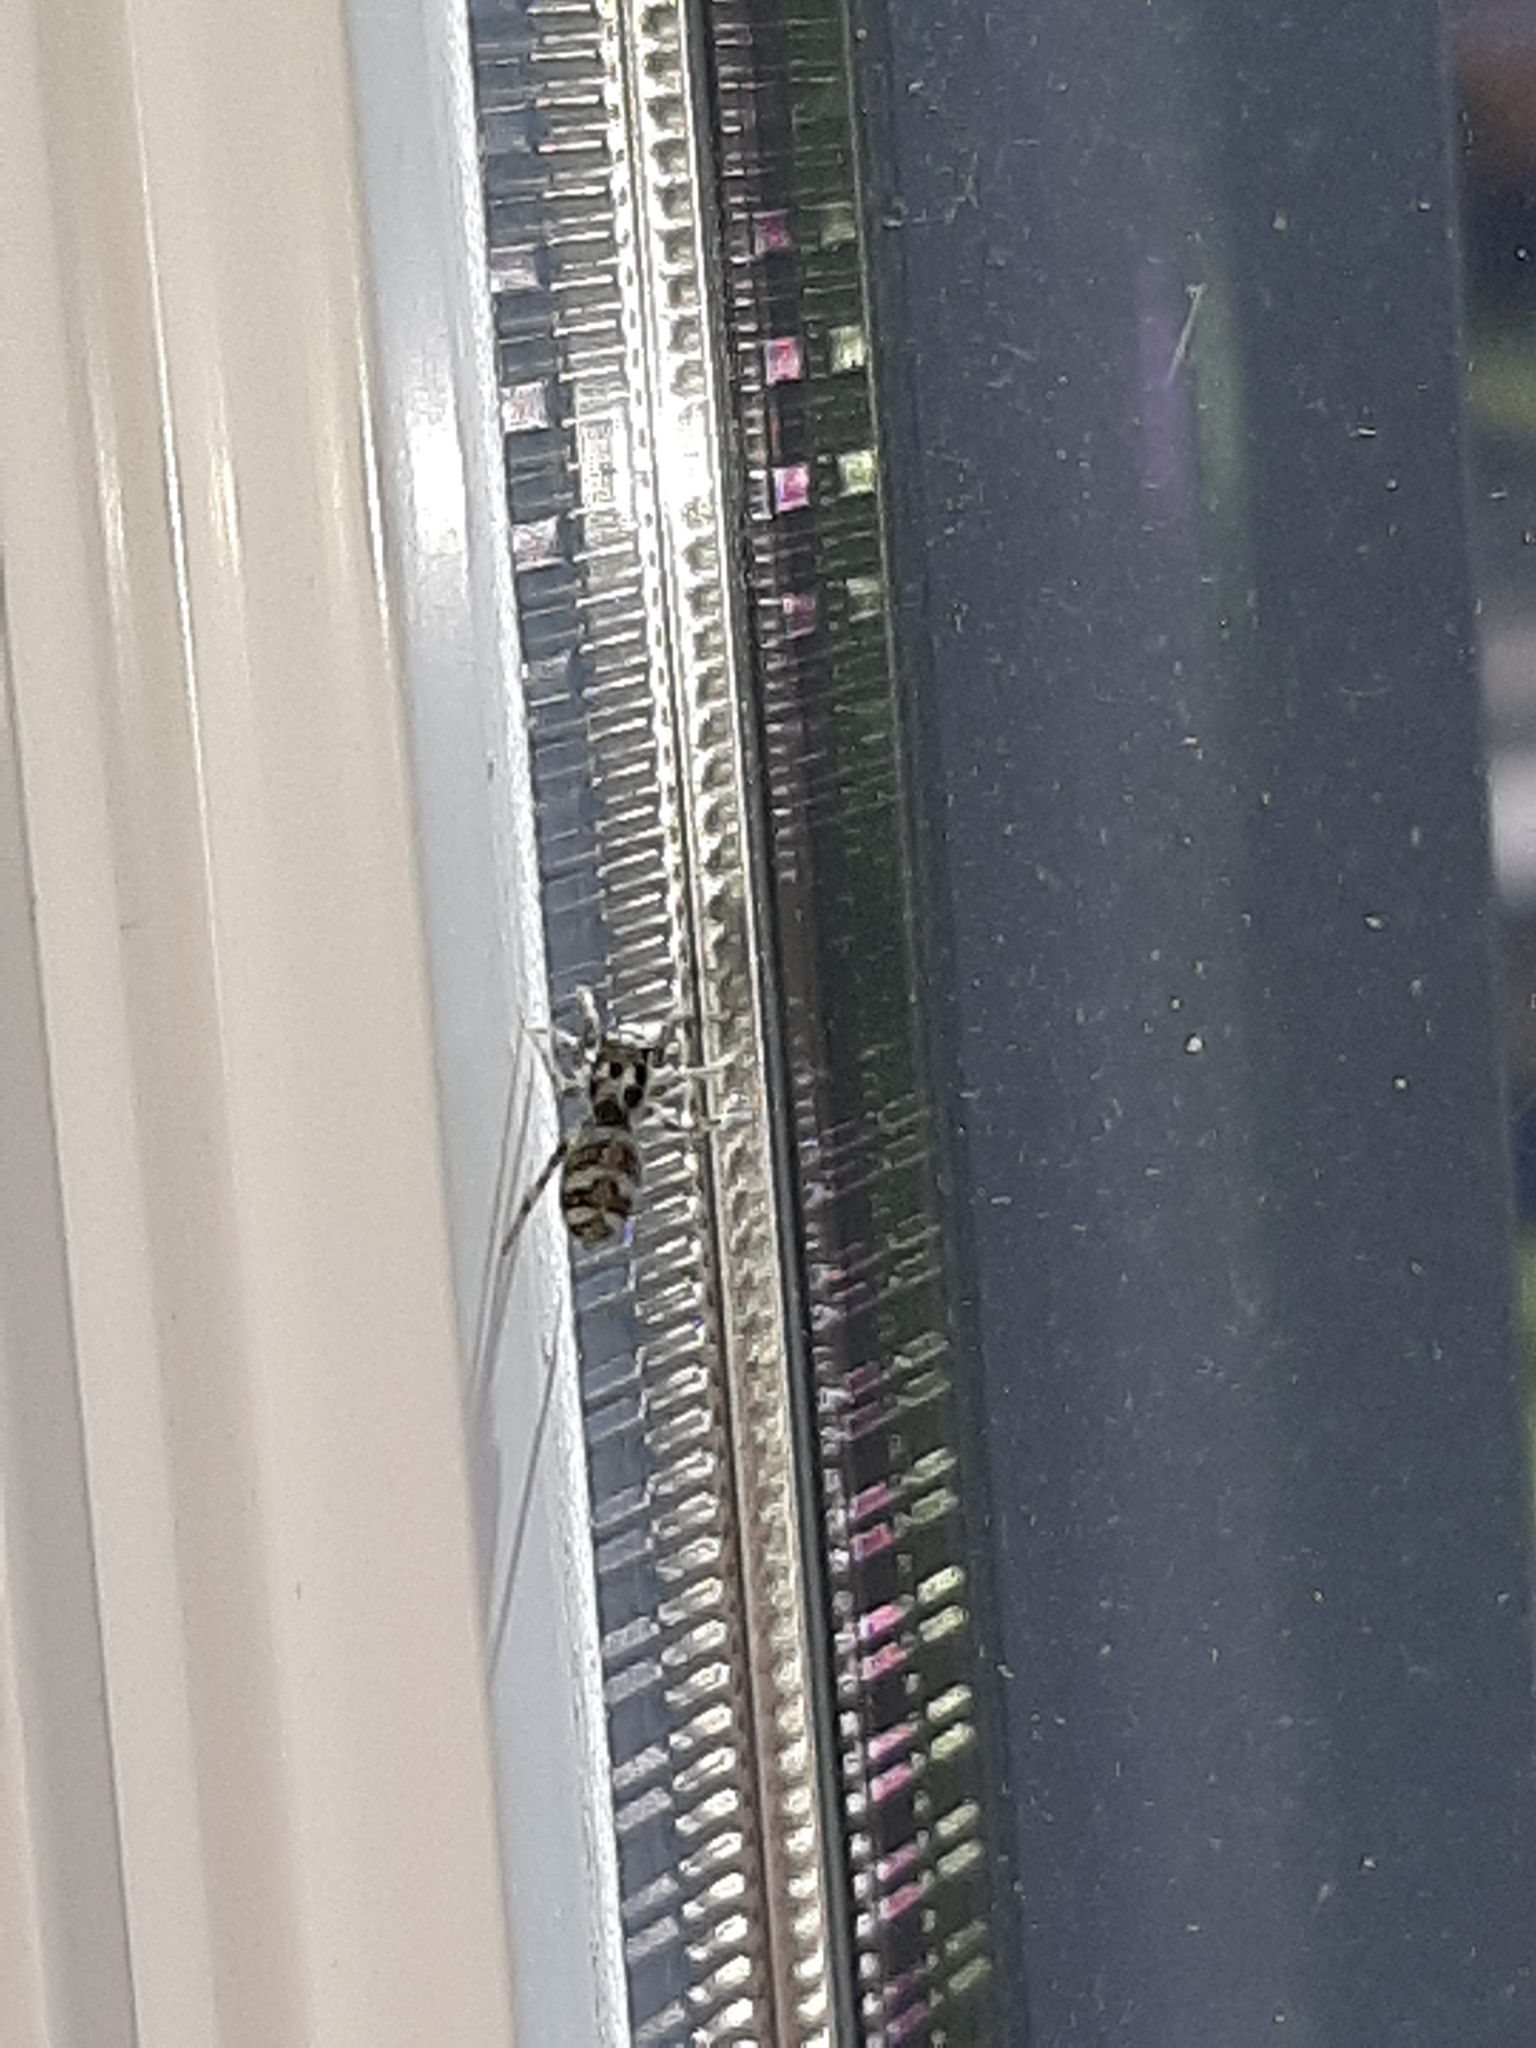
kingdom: Animalia
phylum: Arthropoda
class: Arachnida
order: Araneae
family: Salticidae
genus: Salticus
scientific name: Salticus scenicus
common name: Zebra jumper
